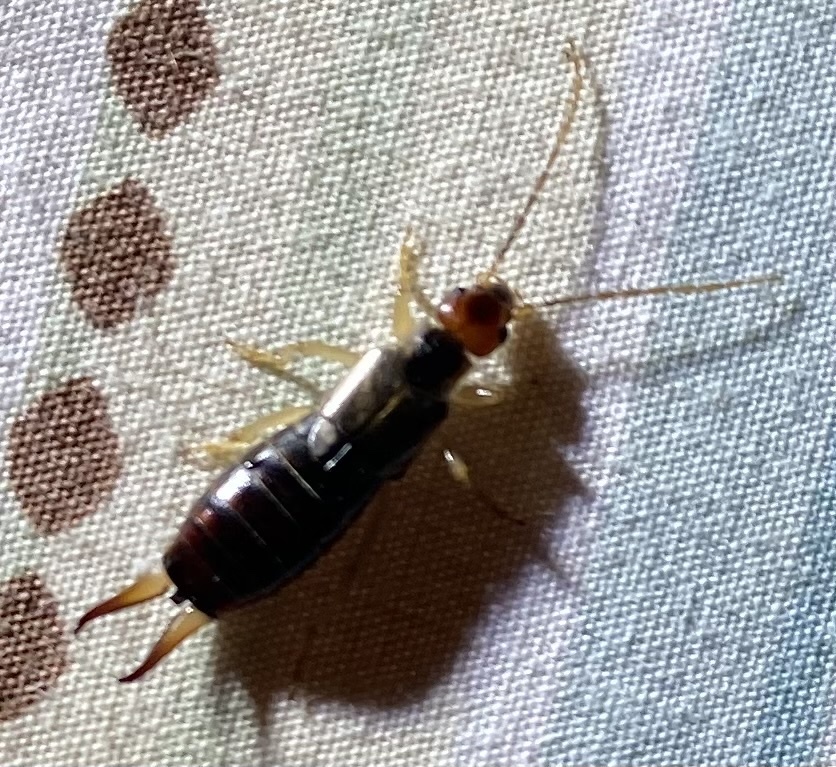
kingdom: Animalia
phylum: Arthropoda
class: Insecta
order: Dermaptera
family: Forficulidae
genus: Forficula
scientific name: Forficula
